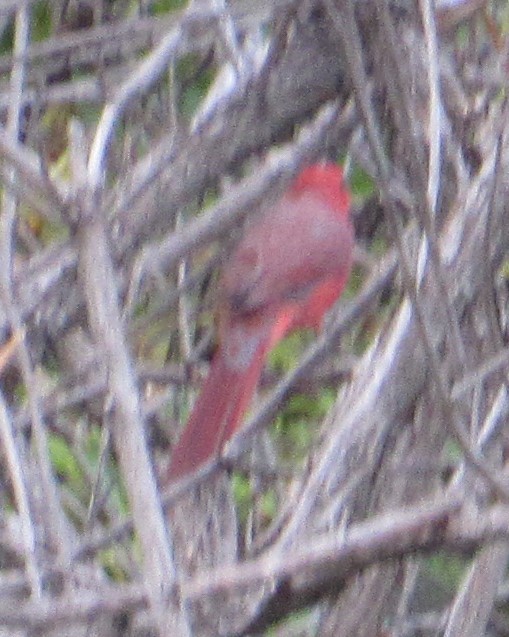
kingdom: Animalia
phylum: Chordata
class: Aves
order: Passeriformes
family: Cardinalidae
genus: Cardinalis
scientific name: Cardinalis cardinalis
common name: Northern cardinal
